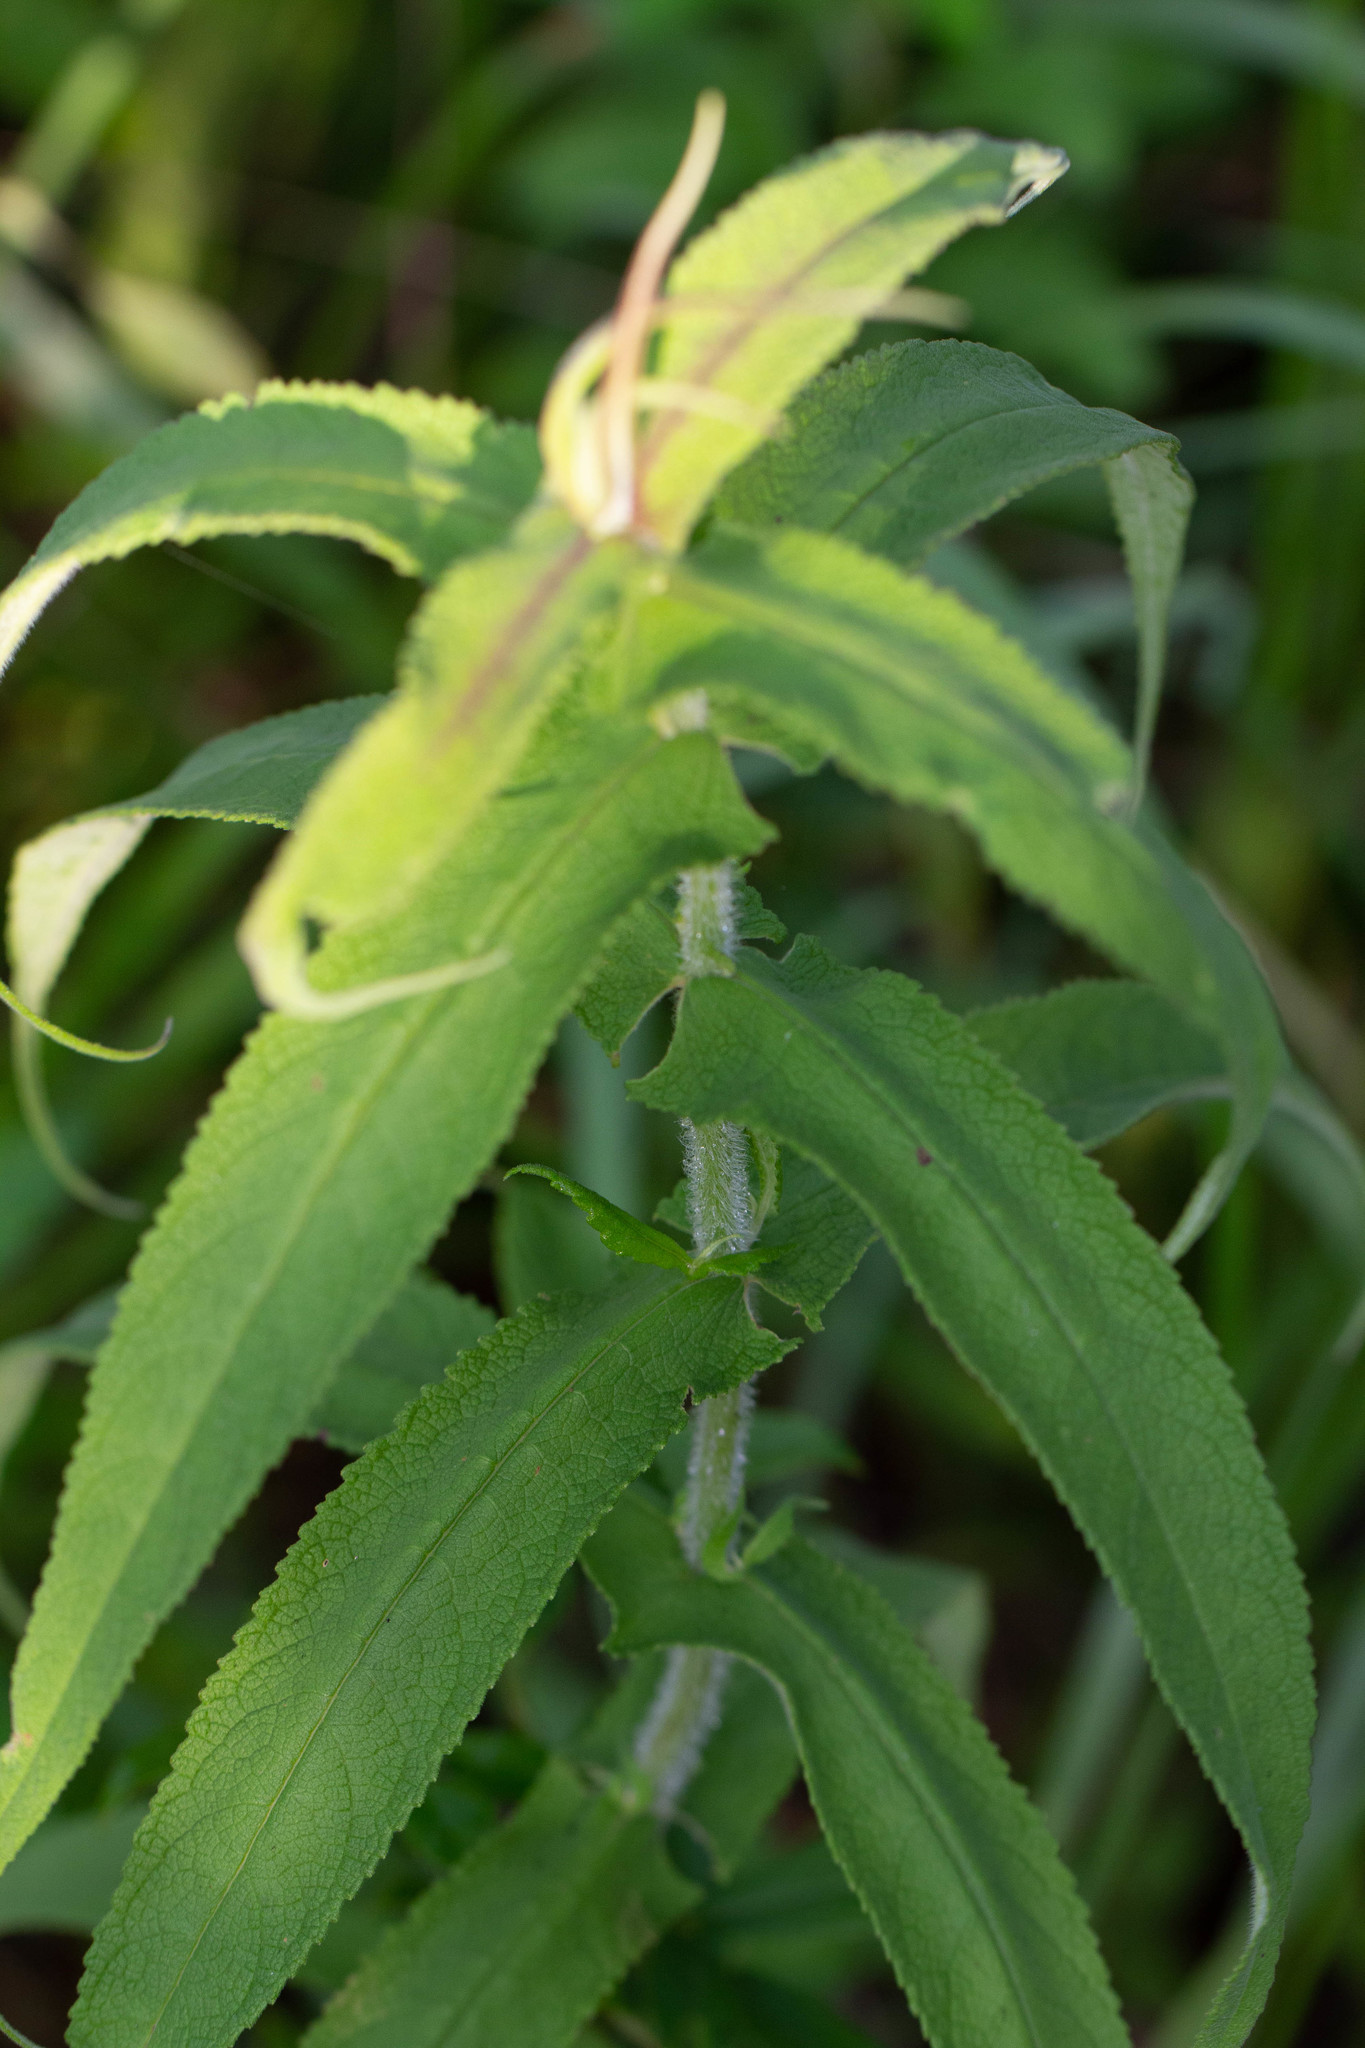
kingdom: Plantae
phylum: Tracheophyta
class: Magnoliopsida
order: Asterales
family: Asteraceae
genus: Eupatorium
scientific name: Eupatorium perfoliatum
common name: Boneset
